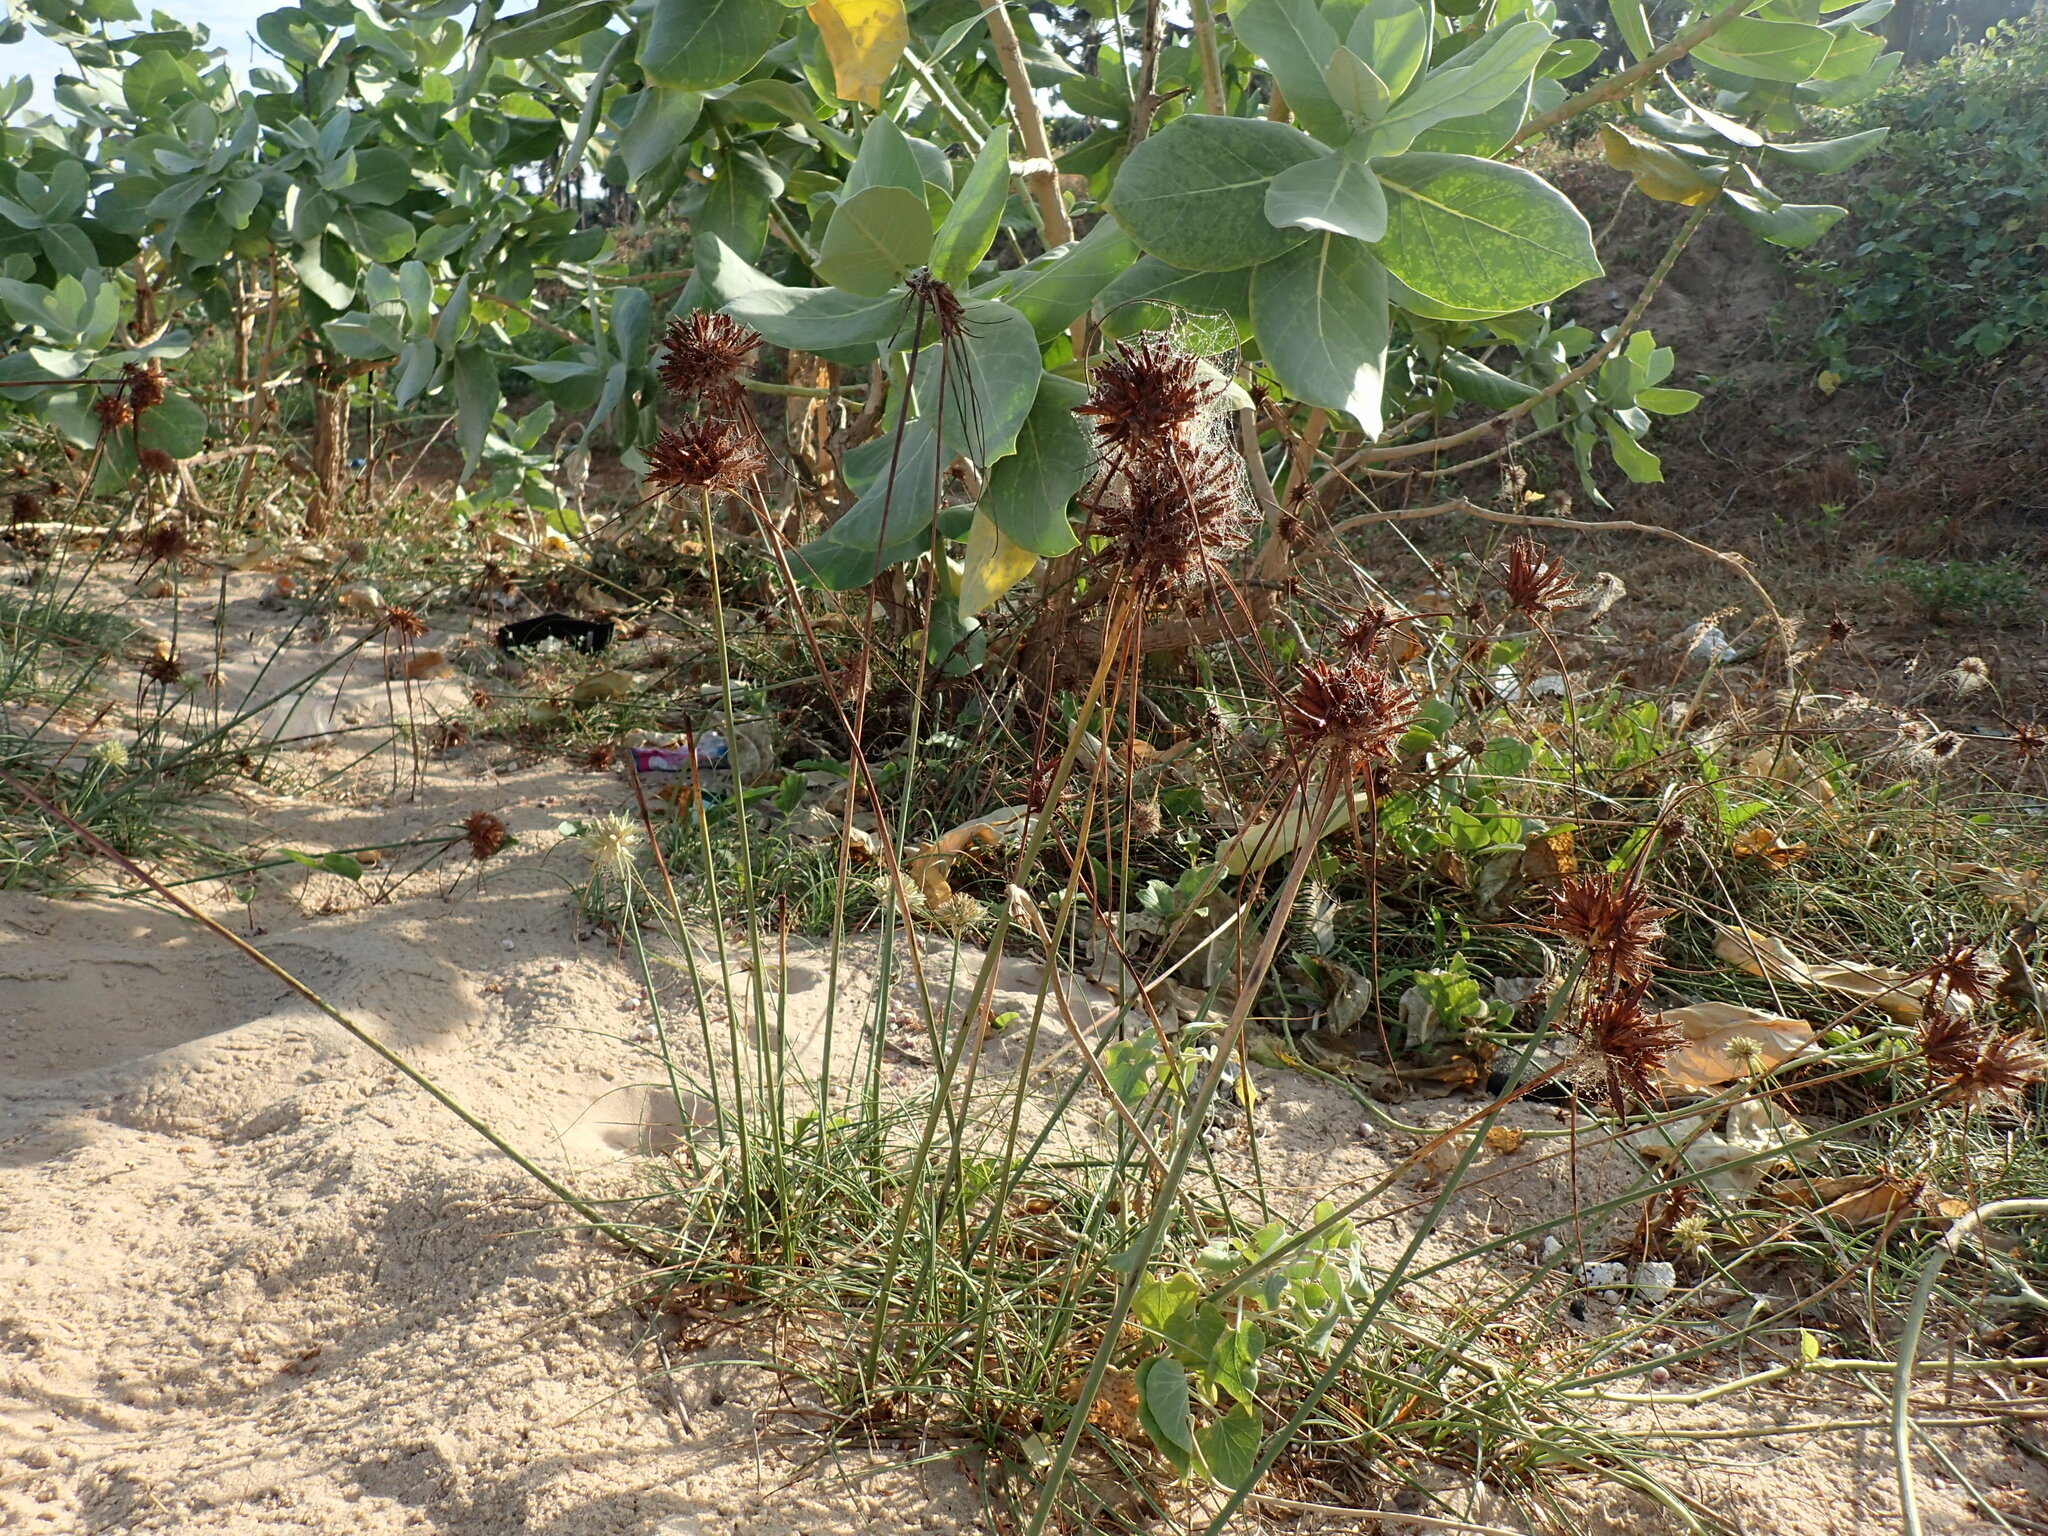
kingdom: Plantae
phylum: Tracheophyta
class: Liliopsida
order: Poales
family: Cyperaceae
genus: Cyperus
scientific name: Cyperus crassipes
